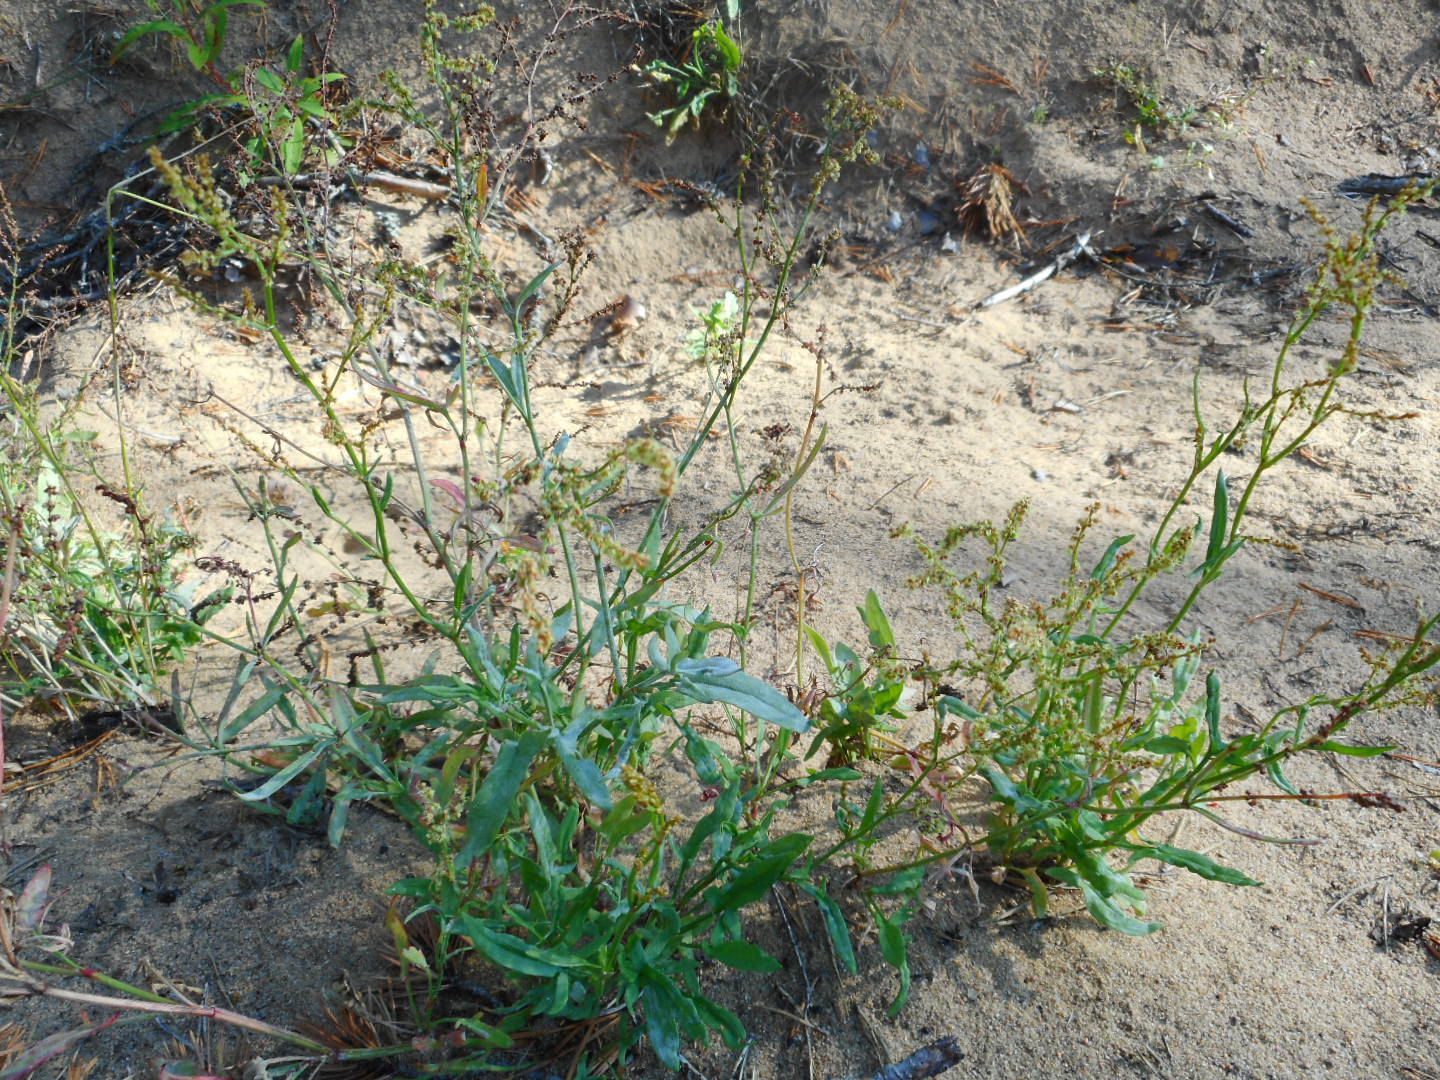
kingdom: Plantae
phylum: Tracheophyta
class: Magnoliopsida
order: Caryophyllales
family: Polygonaceae
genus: Rumex
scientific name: Rumex acetosella
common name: Common sheep sorrel
